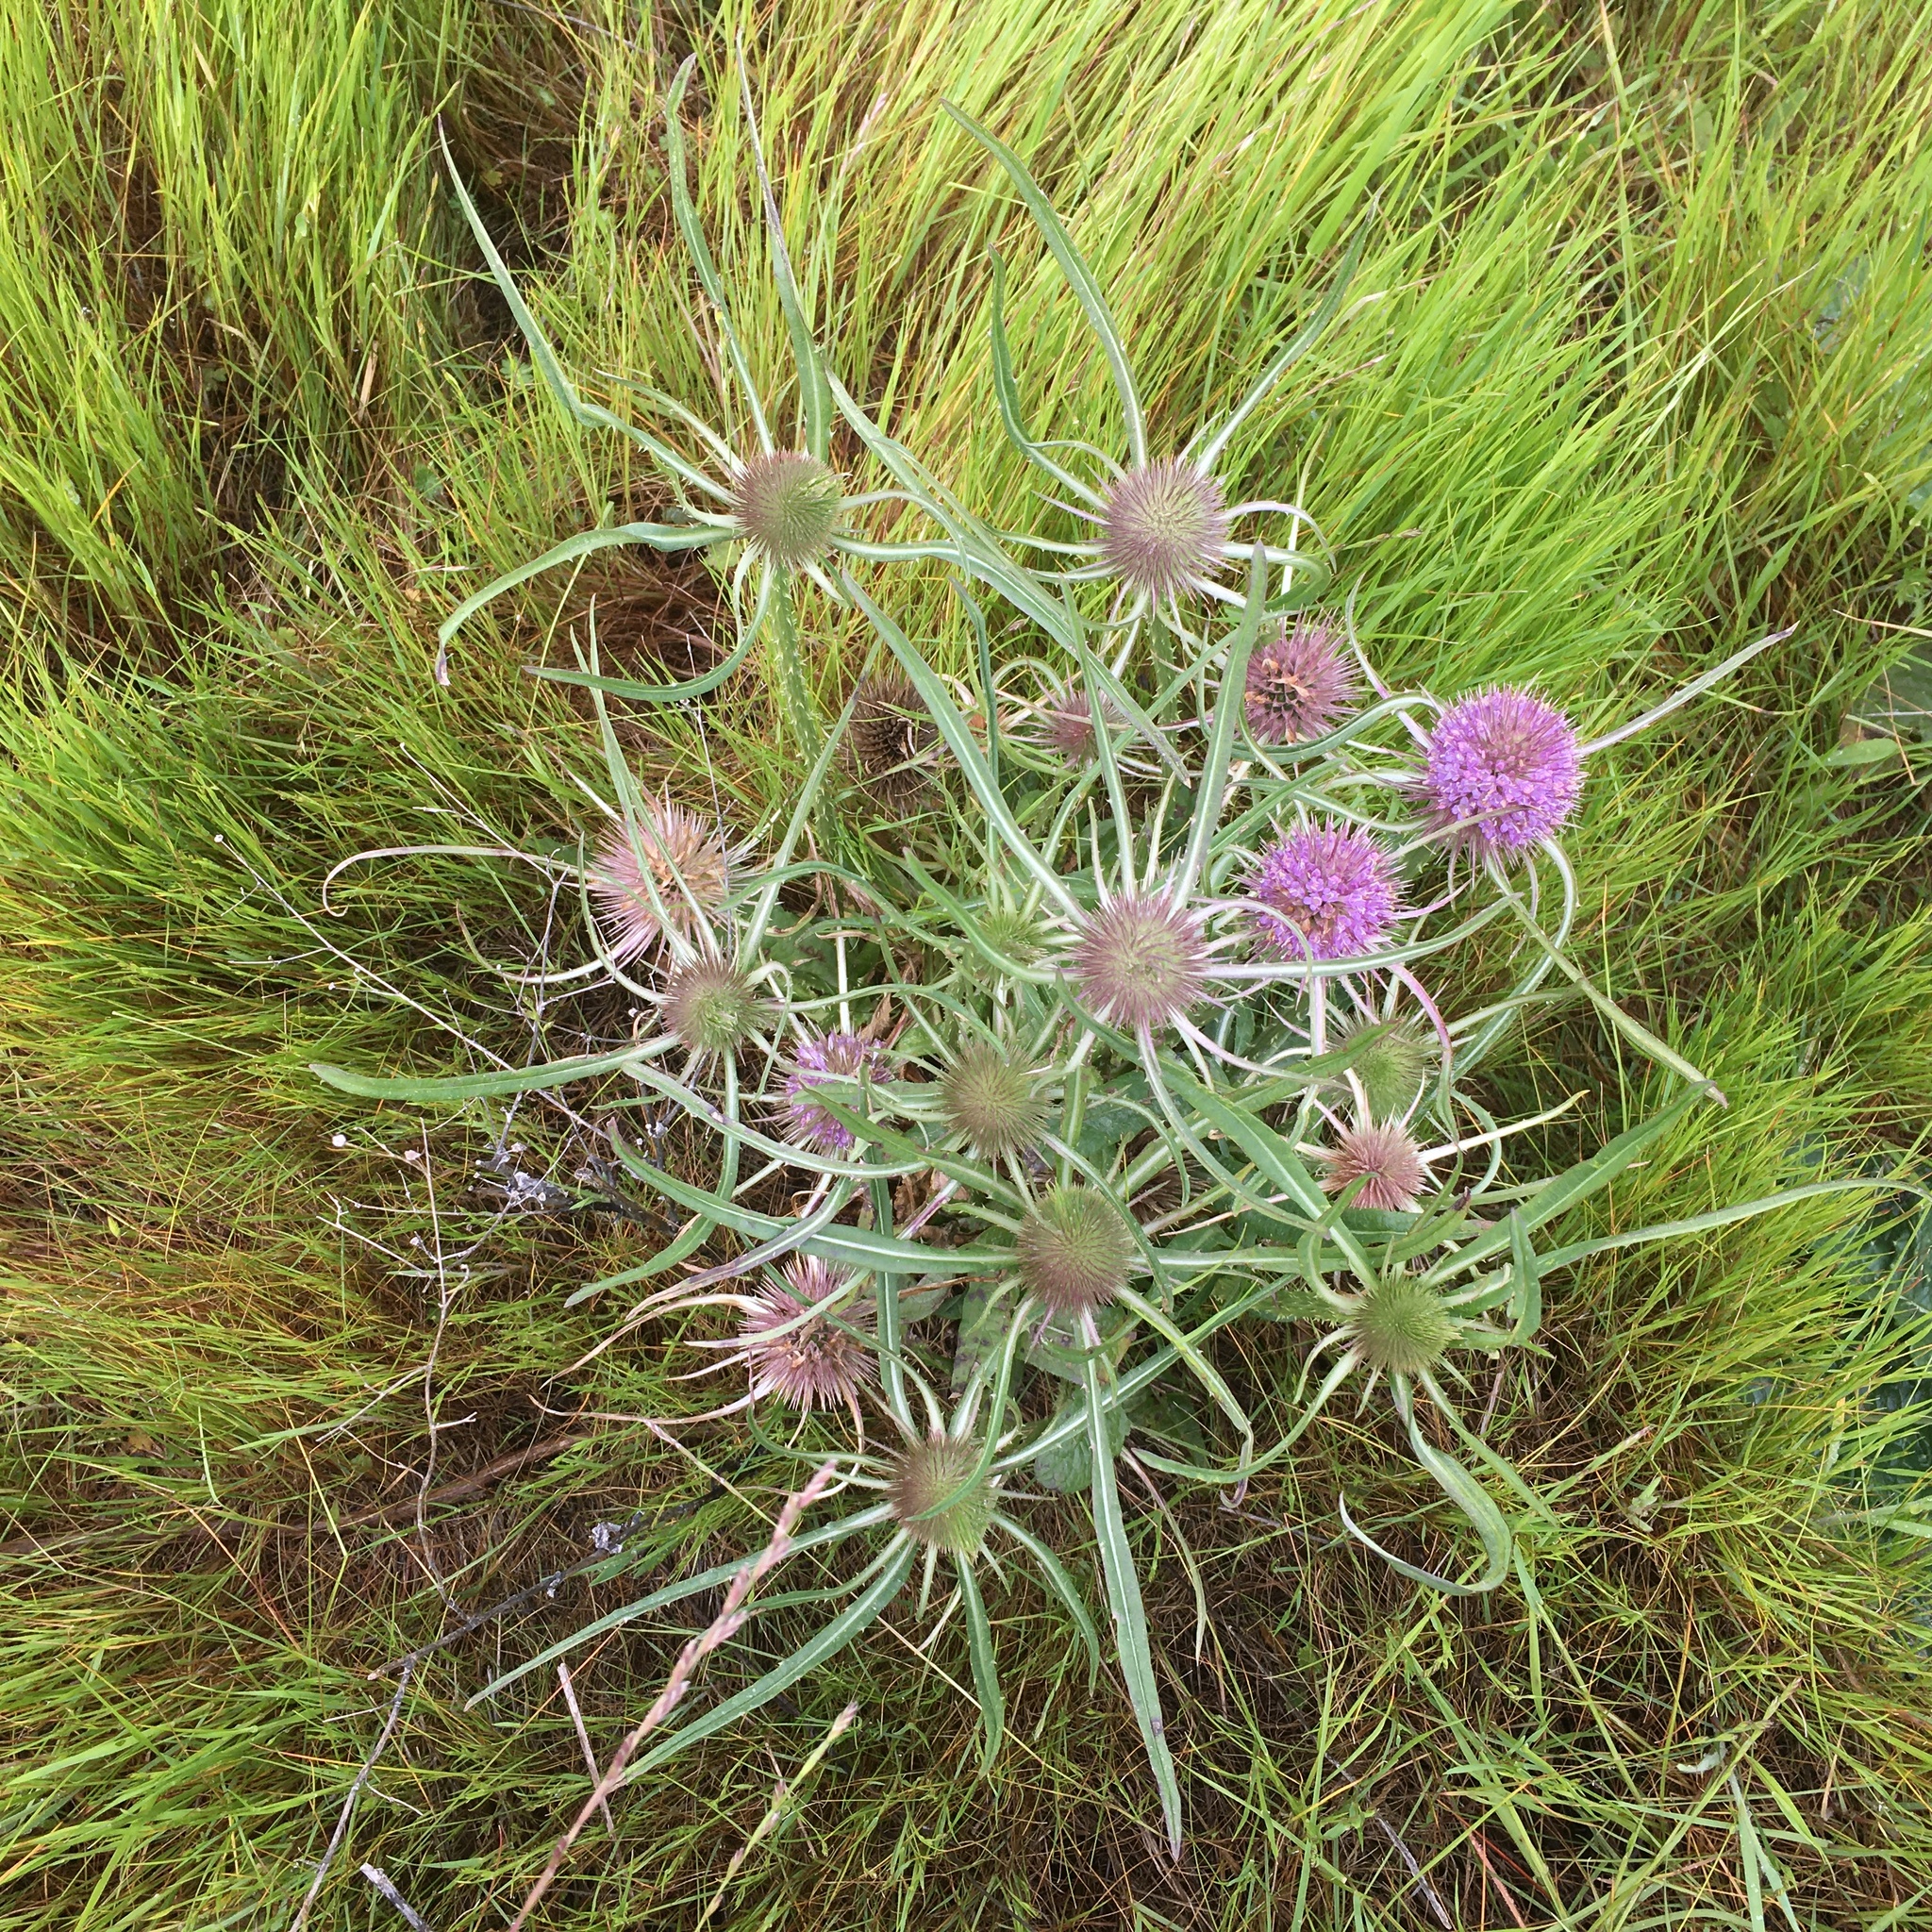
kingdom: Plantae
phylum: Tracheophyta
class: Magnoliopsida
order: Dipsacales
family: Caprifoliaceae
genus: Dipsacus
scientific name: Dipsacus fullonum
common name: Teasel
